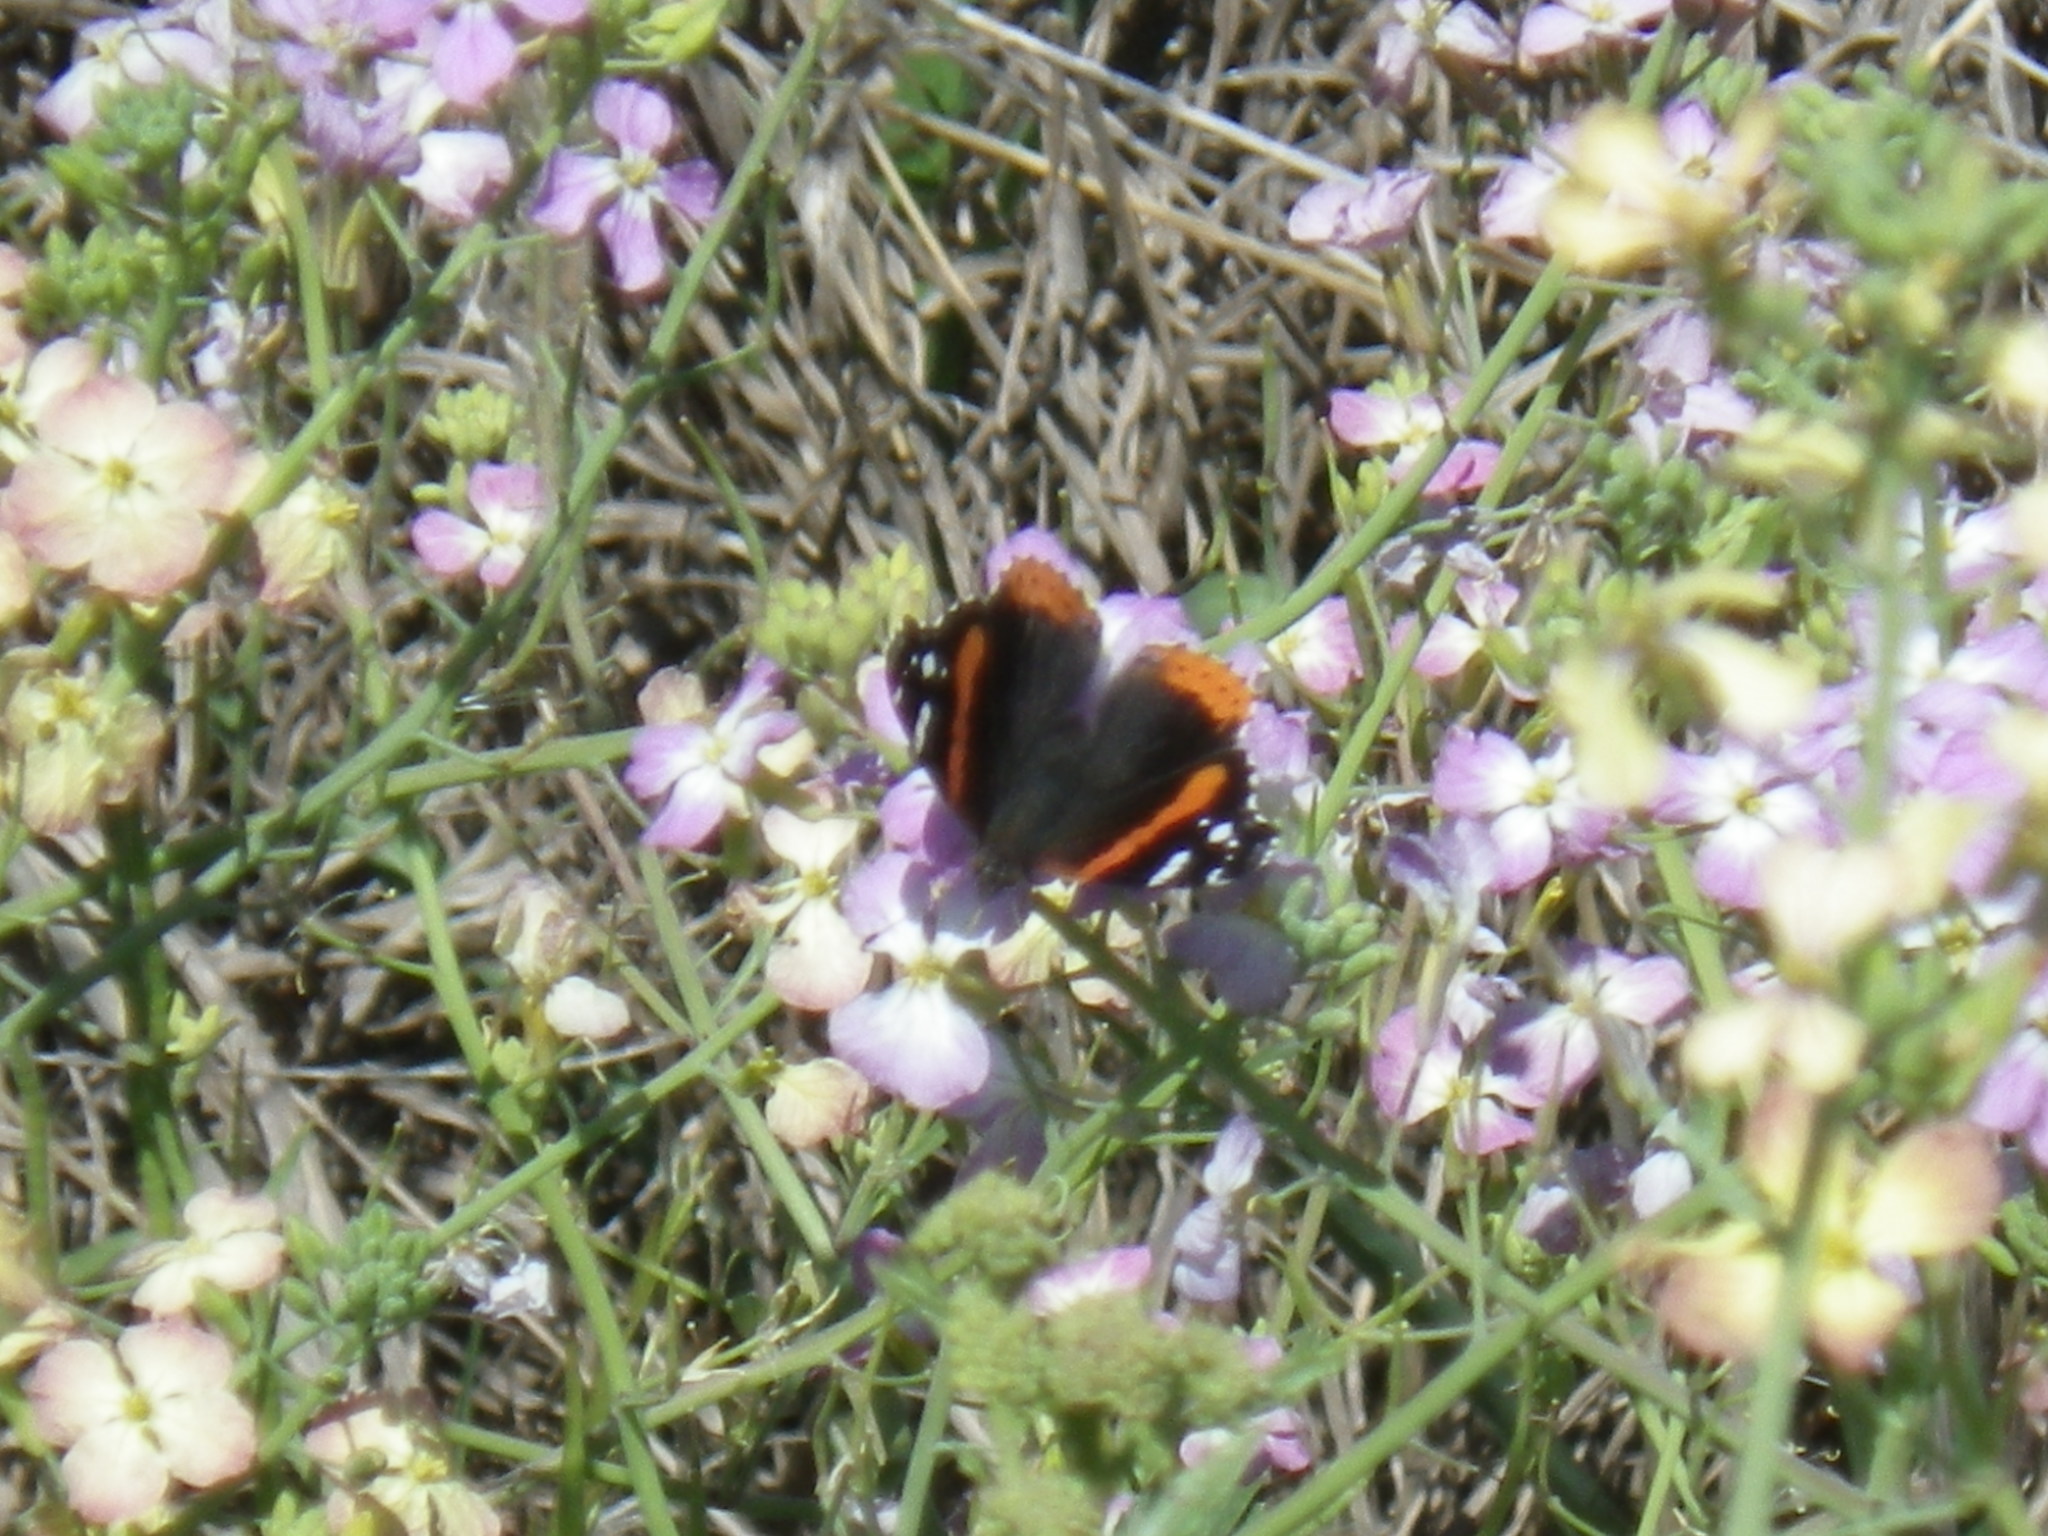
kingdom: Animalia
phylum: Arthropoda
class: Insecta
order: Lepidoptera
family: Nymphalidae
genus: Vanessa
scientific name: Vanessa atalanta
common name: Red admiral
